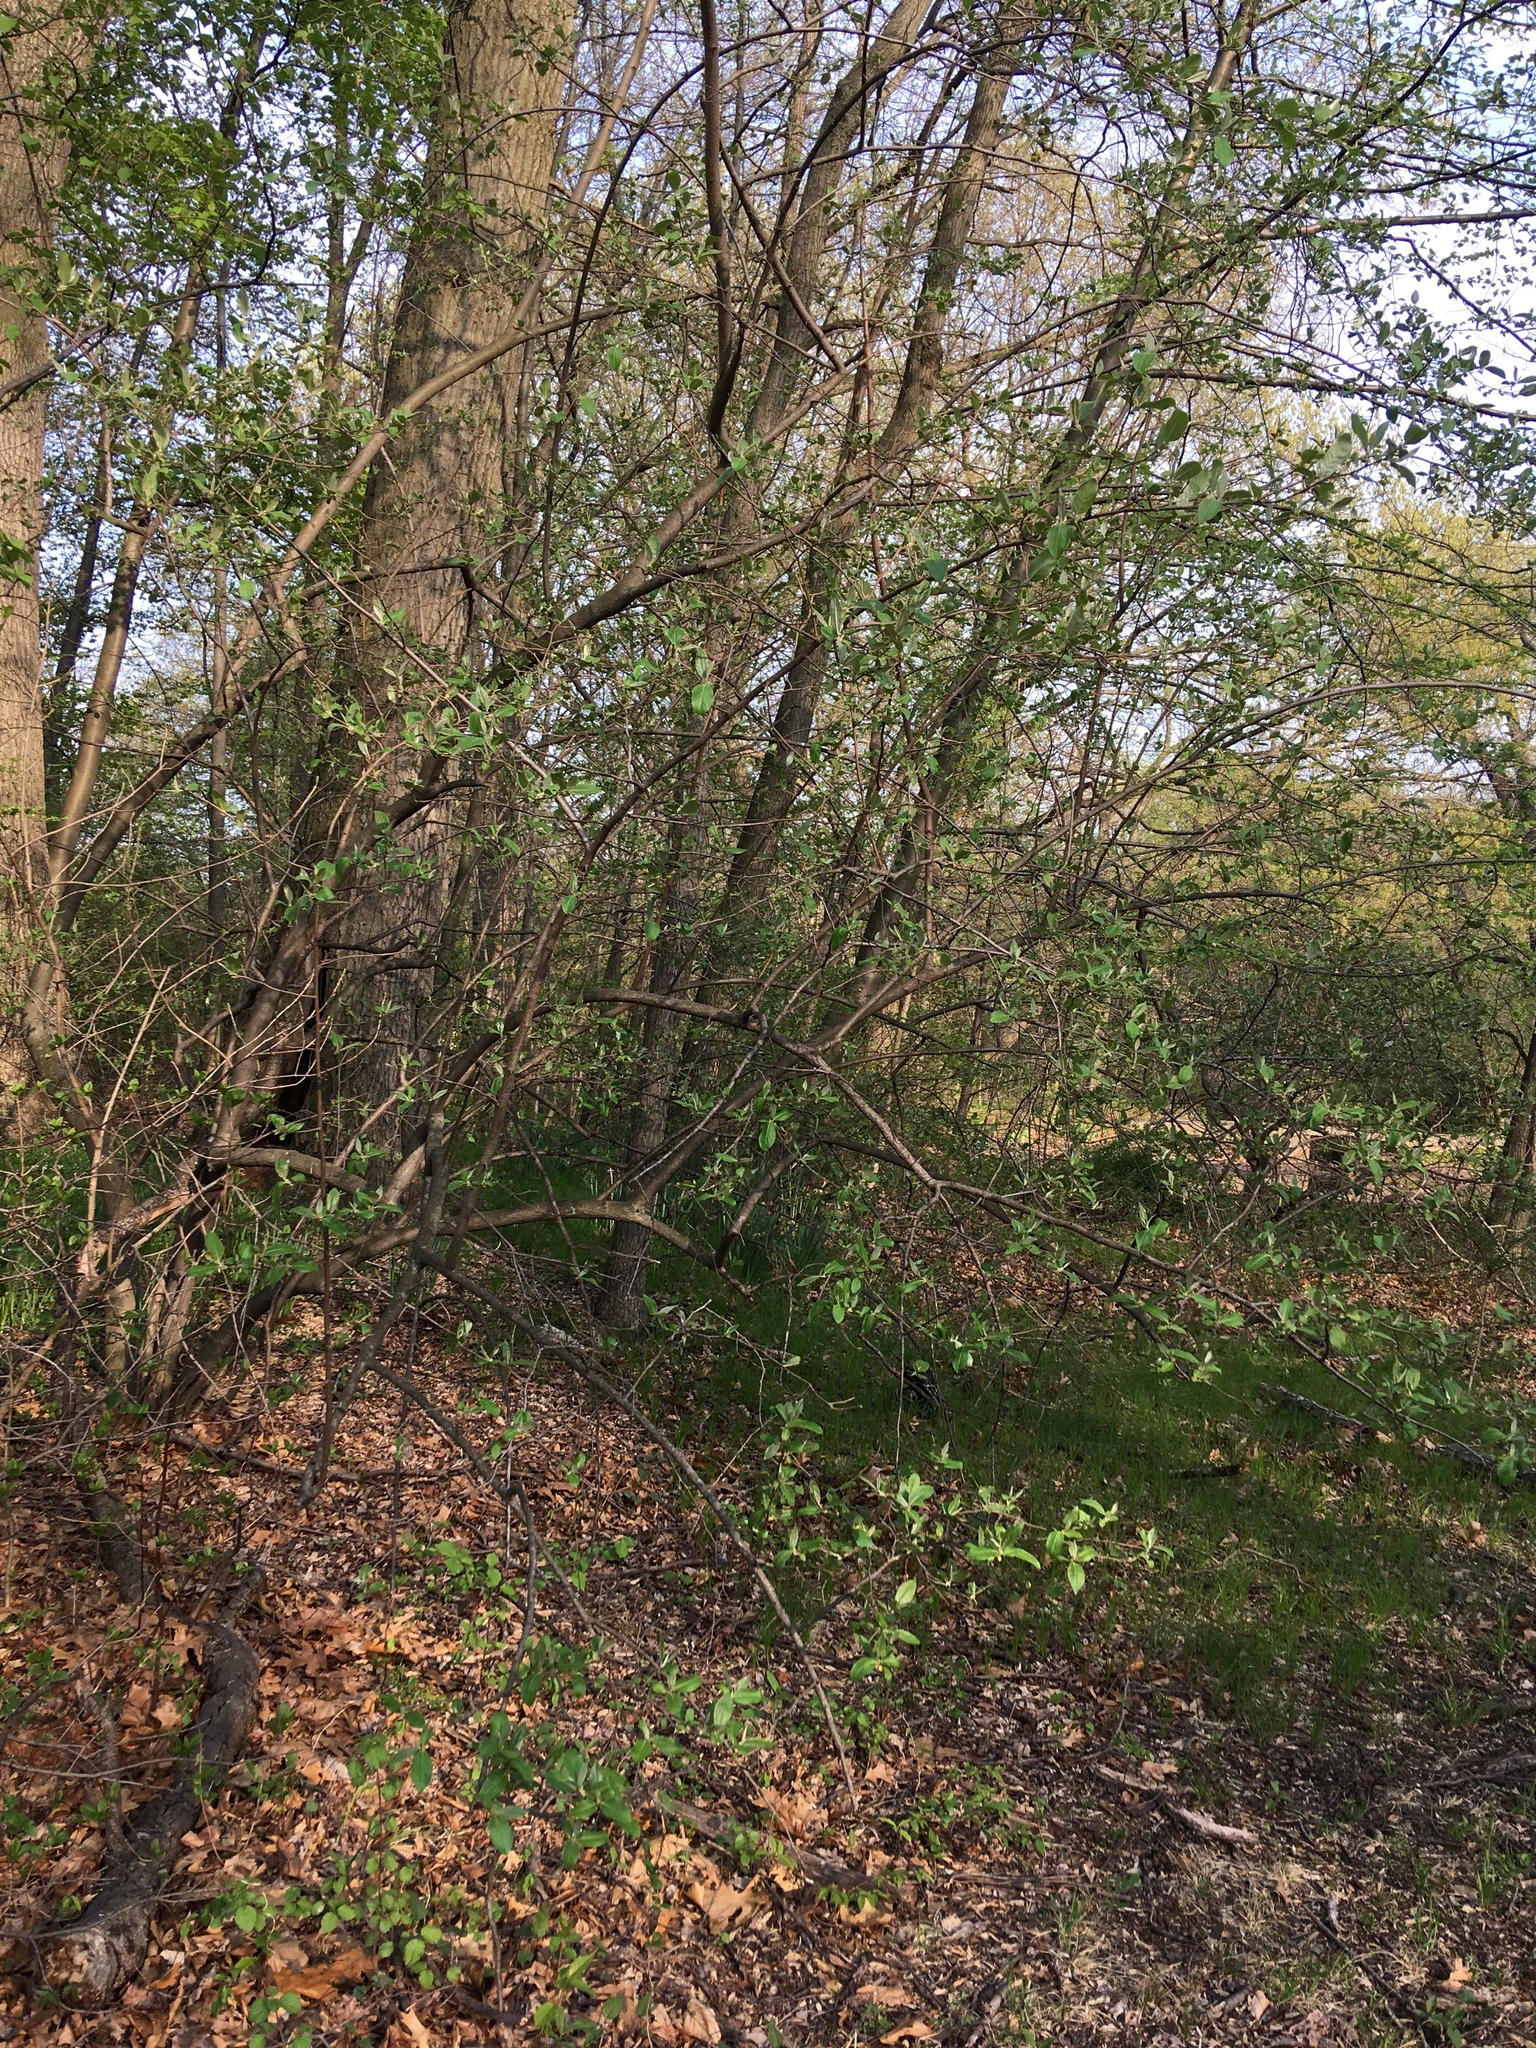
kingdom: Plantae
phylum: Tracheophyta
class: Magnoliopsida
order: Rosales
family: Elaeagnaceae
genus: Elaeagnus
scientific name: Elaeagnus umbellata
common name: Autumn olive
